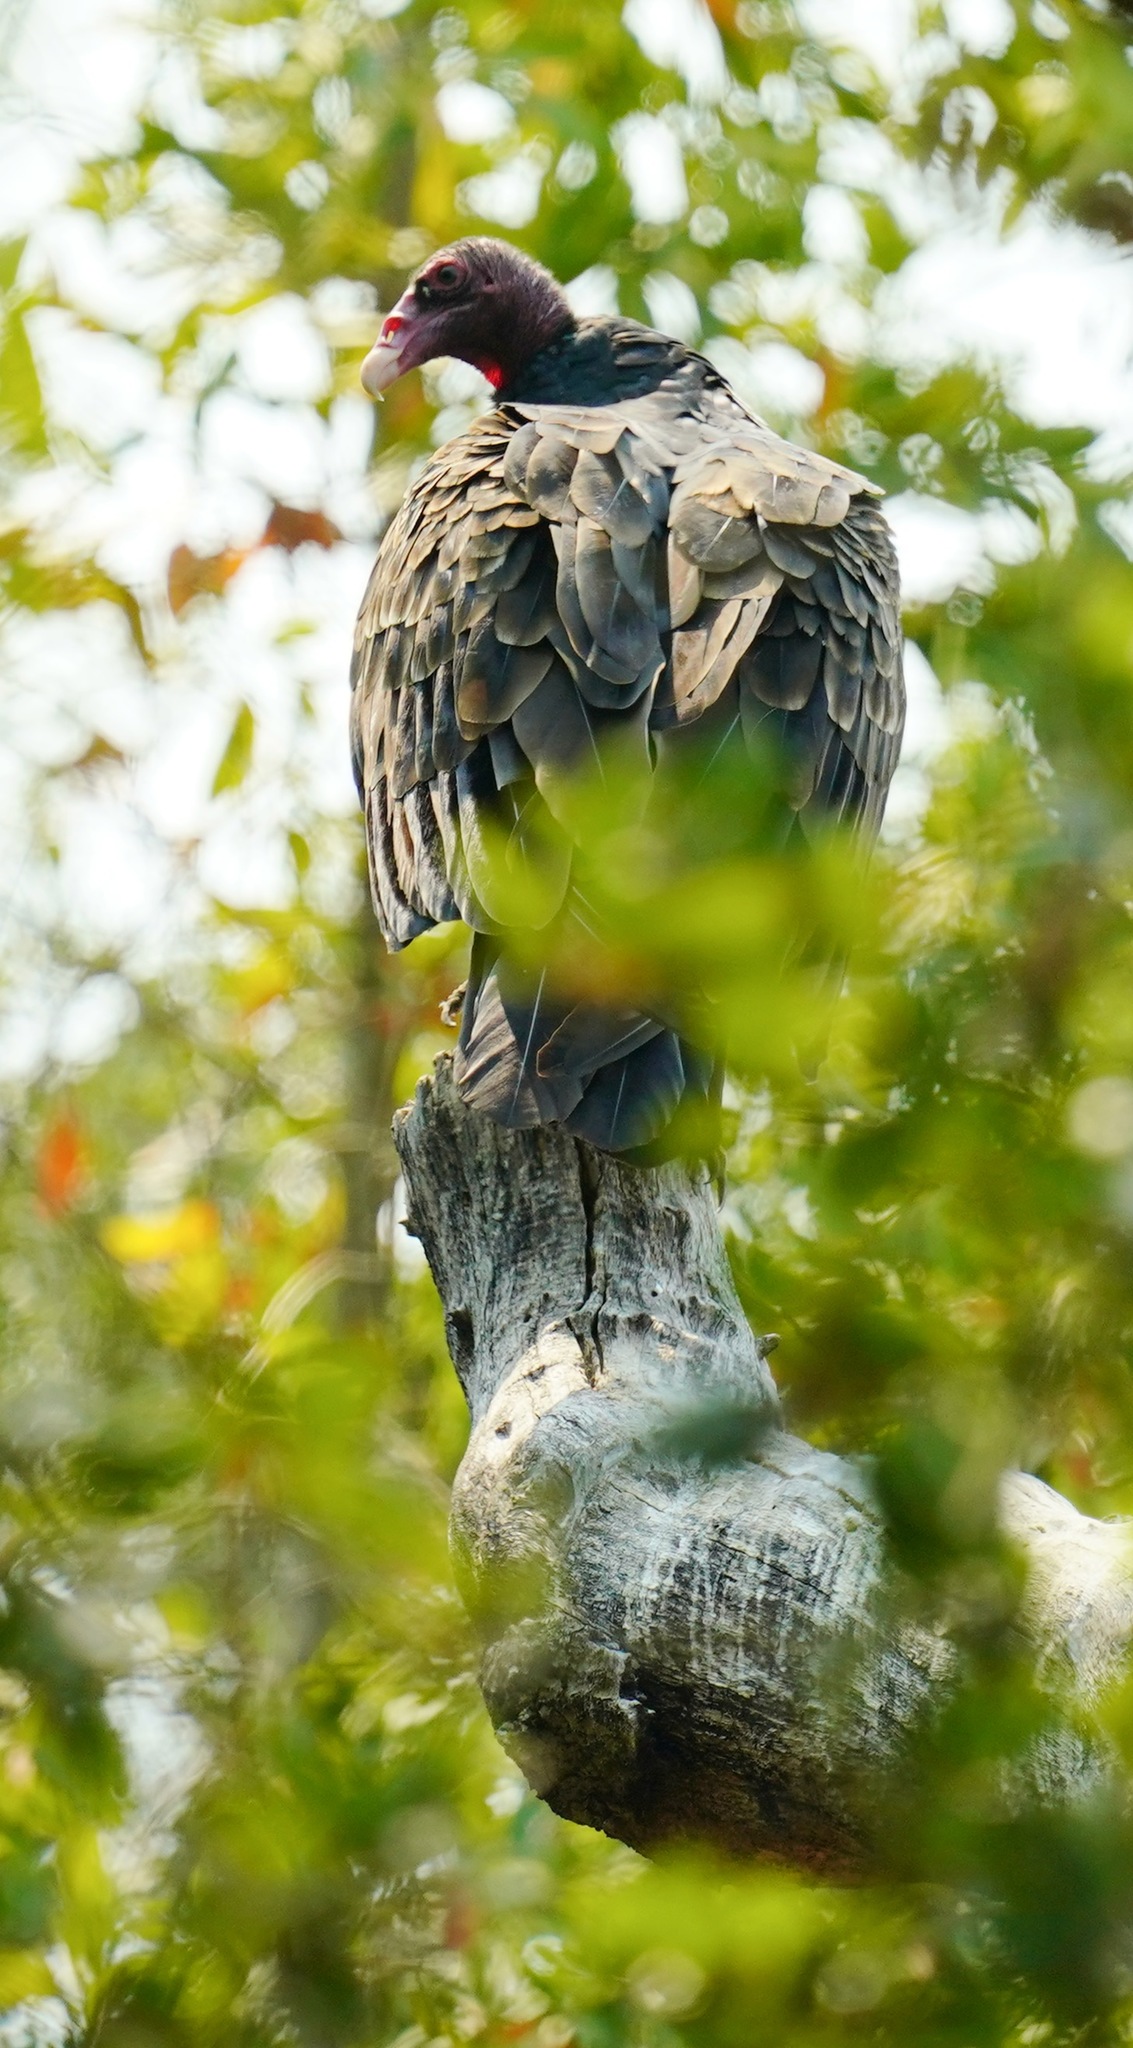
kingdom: Animalia
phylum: Chordata
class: Aves
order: Accipitriformes
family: Cathartidae
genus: Cathartes
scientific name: Cathartes aura
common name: Turkey vulture
